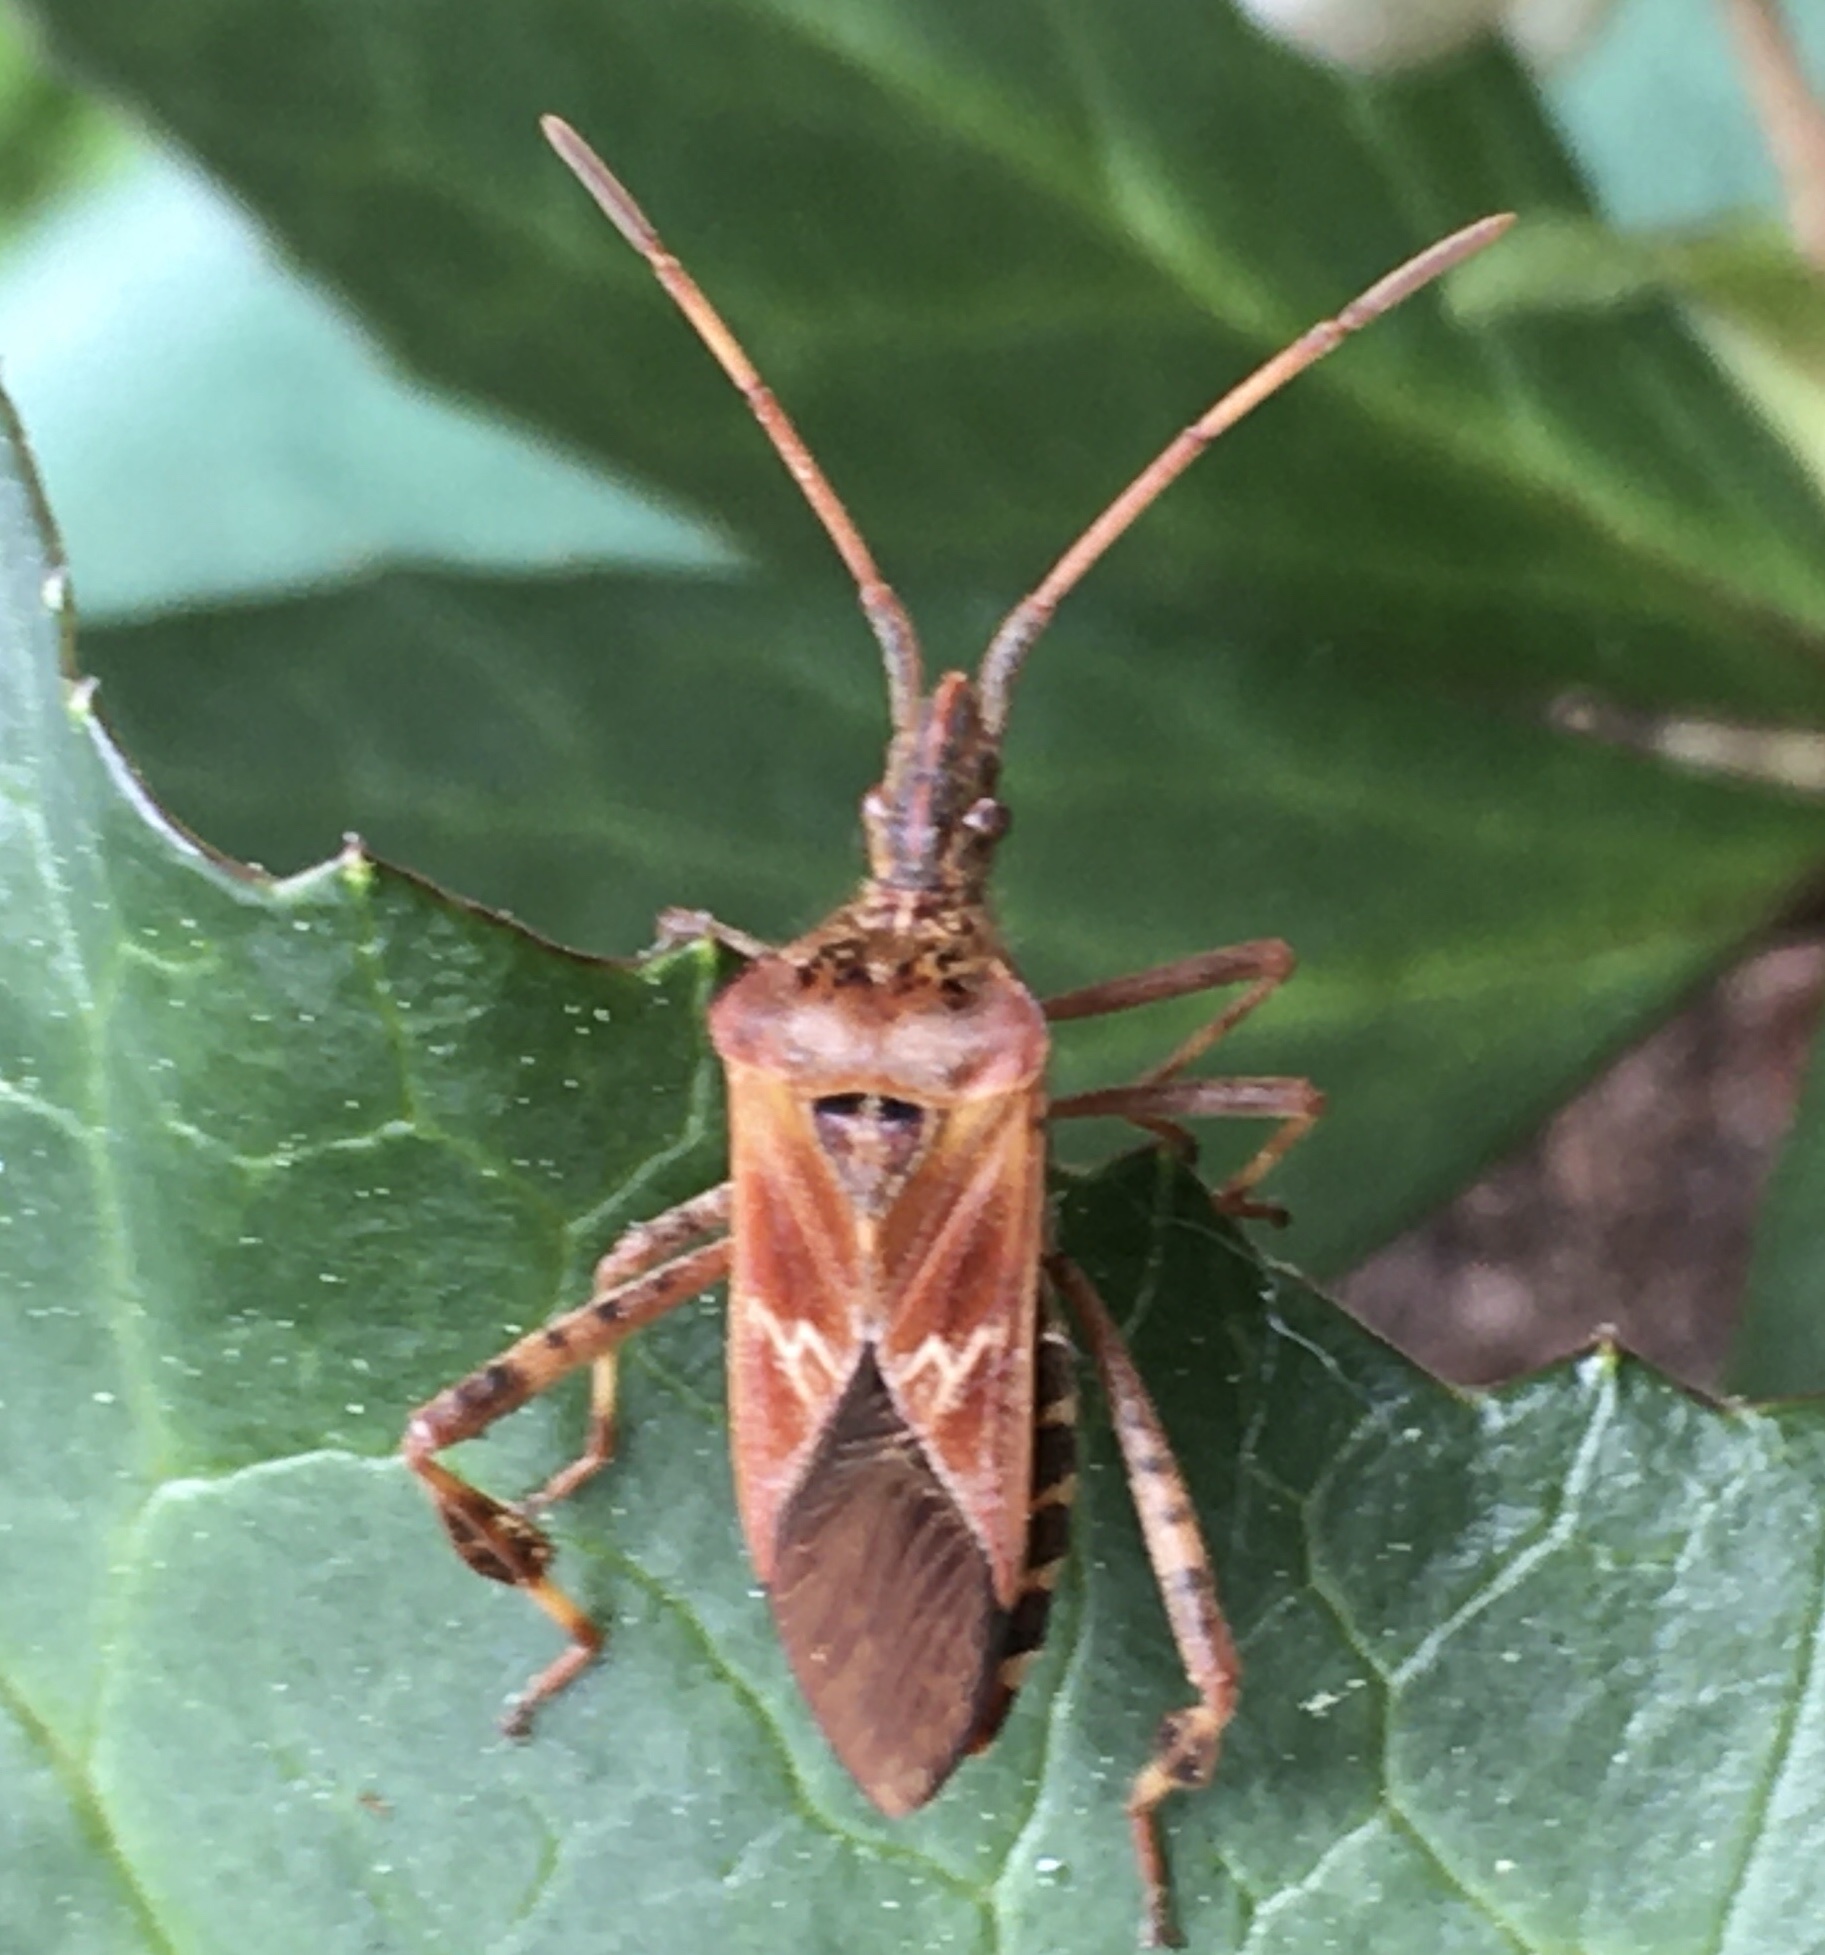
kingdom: Animalia
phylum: Arthropoda
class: Insecta
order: Hemiptera
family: Coreidae
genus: Leptoglossus
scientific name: Leptoglossus occidentalis
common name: Western conifer-seed bug
